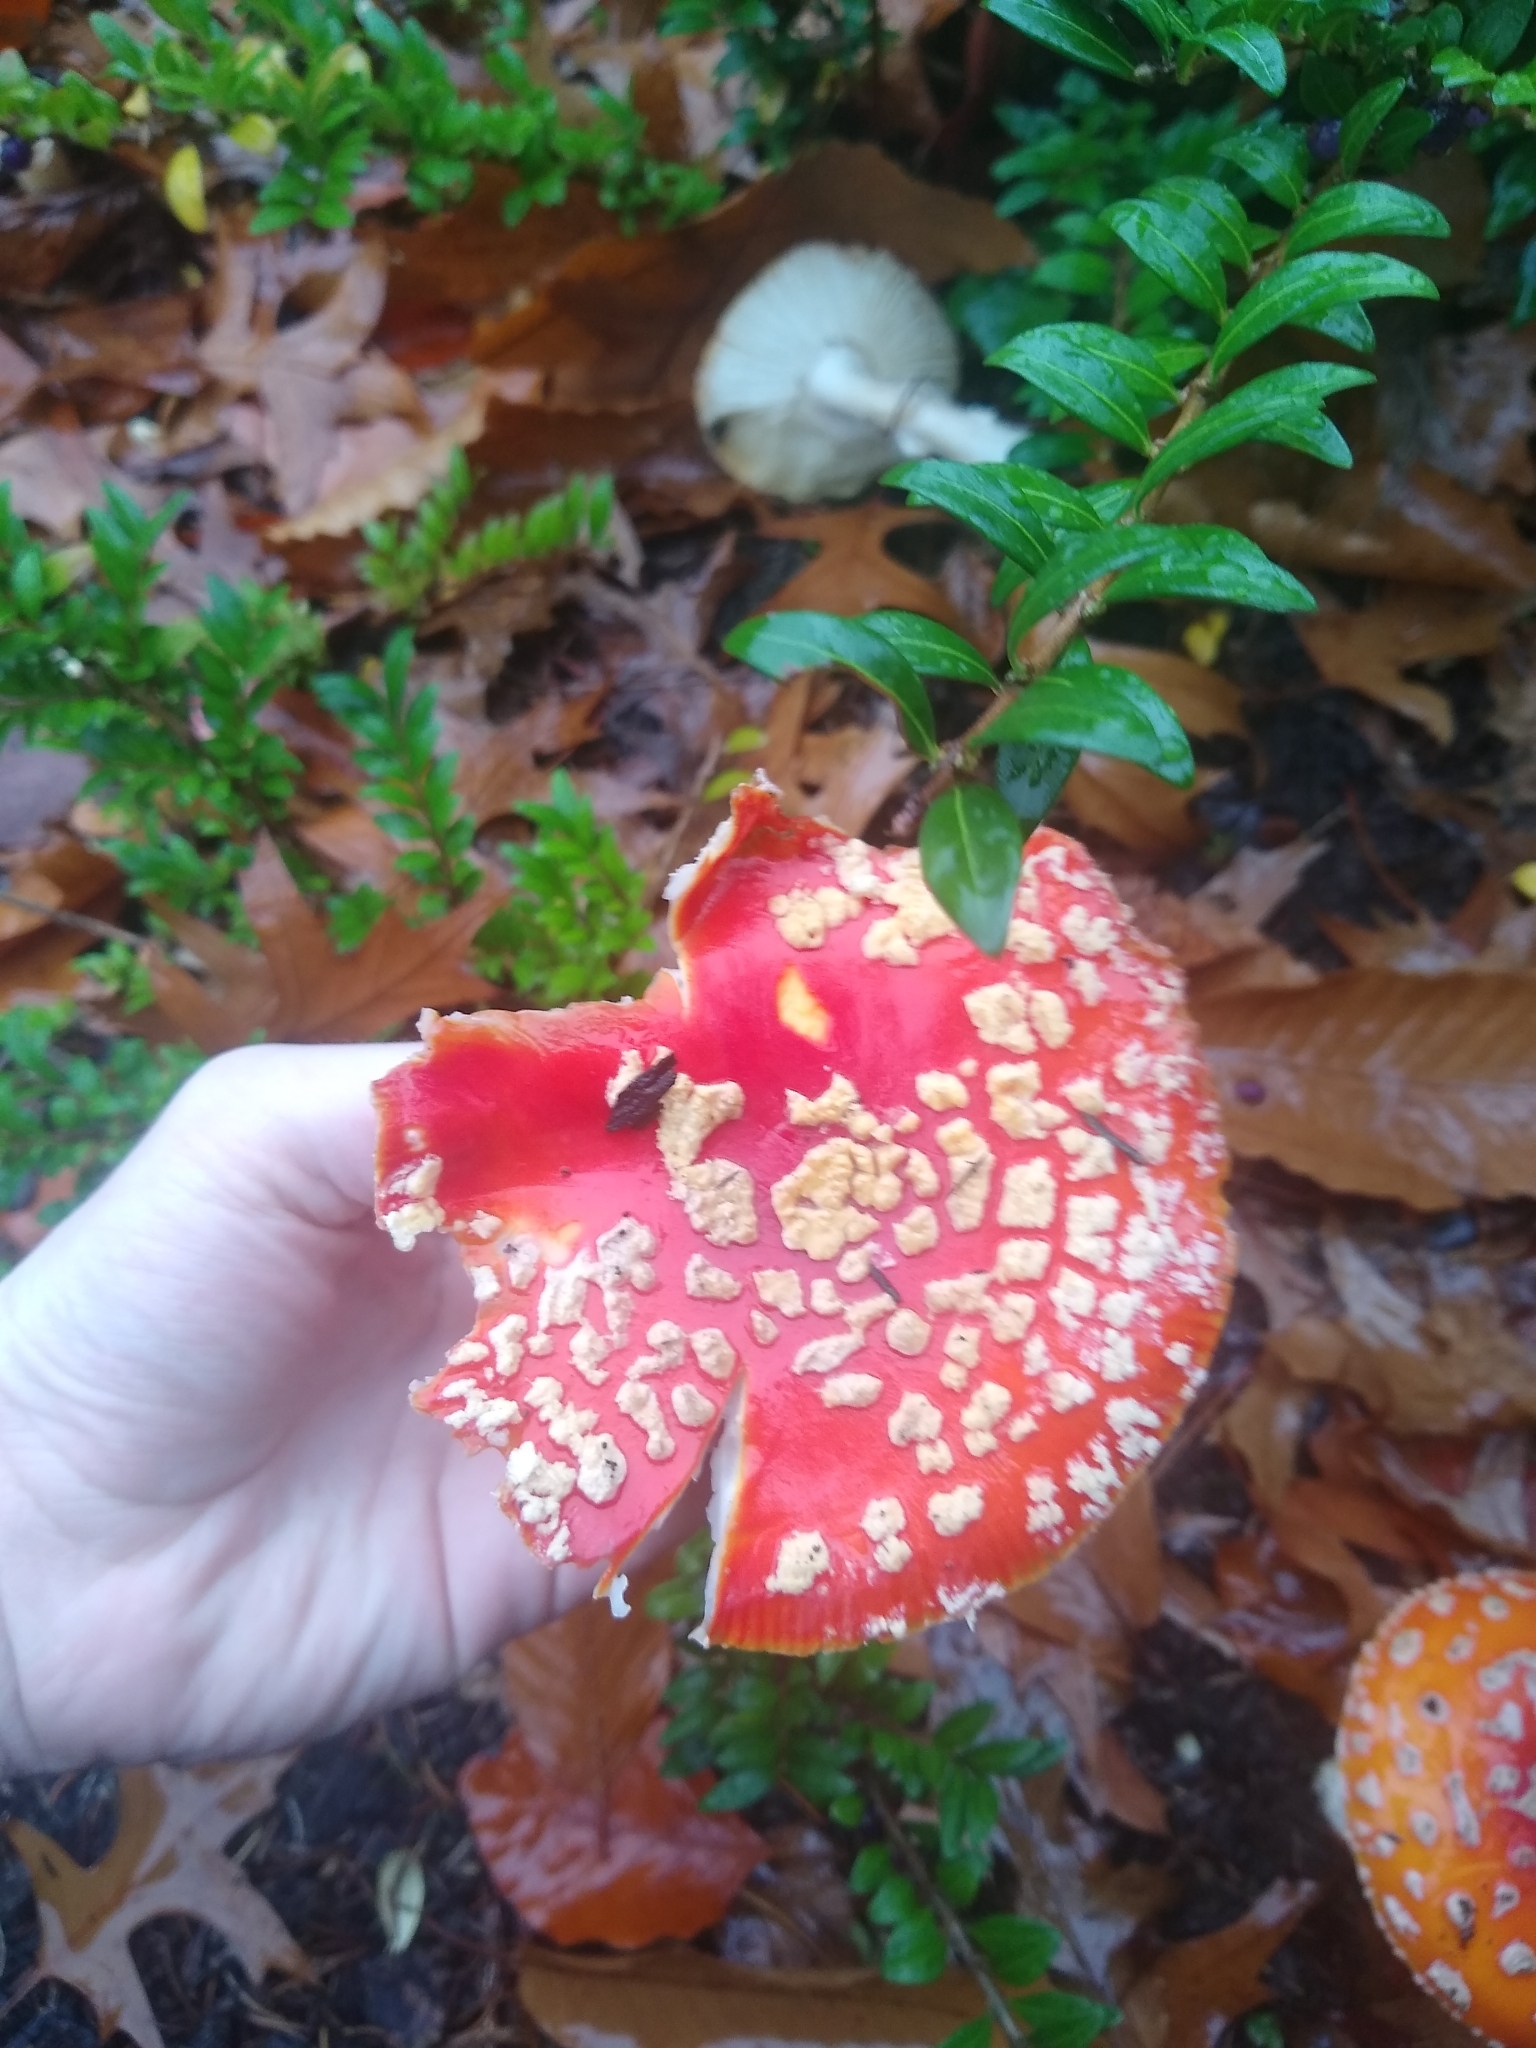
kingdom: Fungi
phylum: Basidiomycota
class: Agaricomycetes
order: Agaricales
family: Amanitaceae
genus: Amanita
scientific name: Amanita muscaria
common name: Fly agaric
